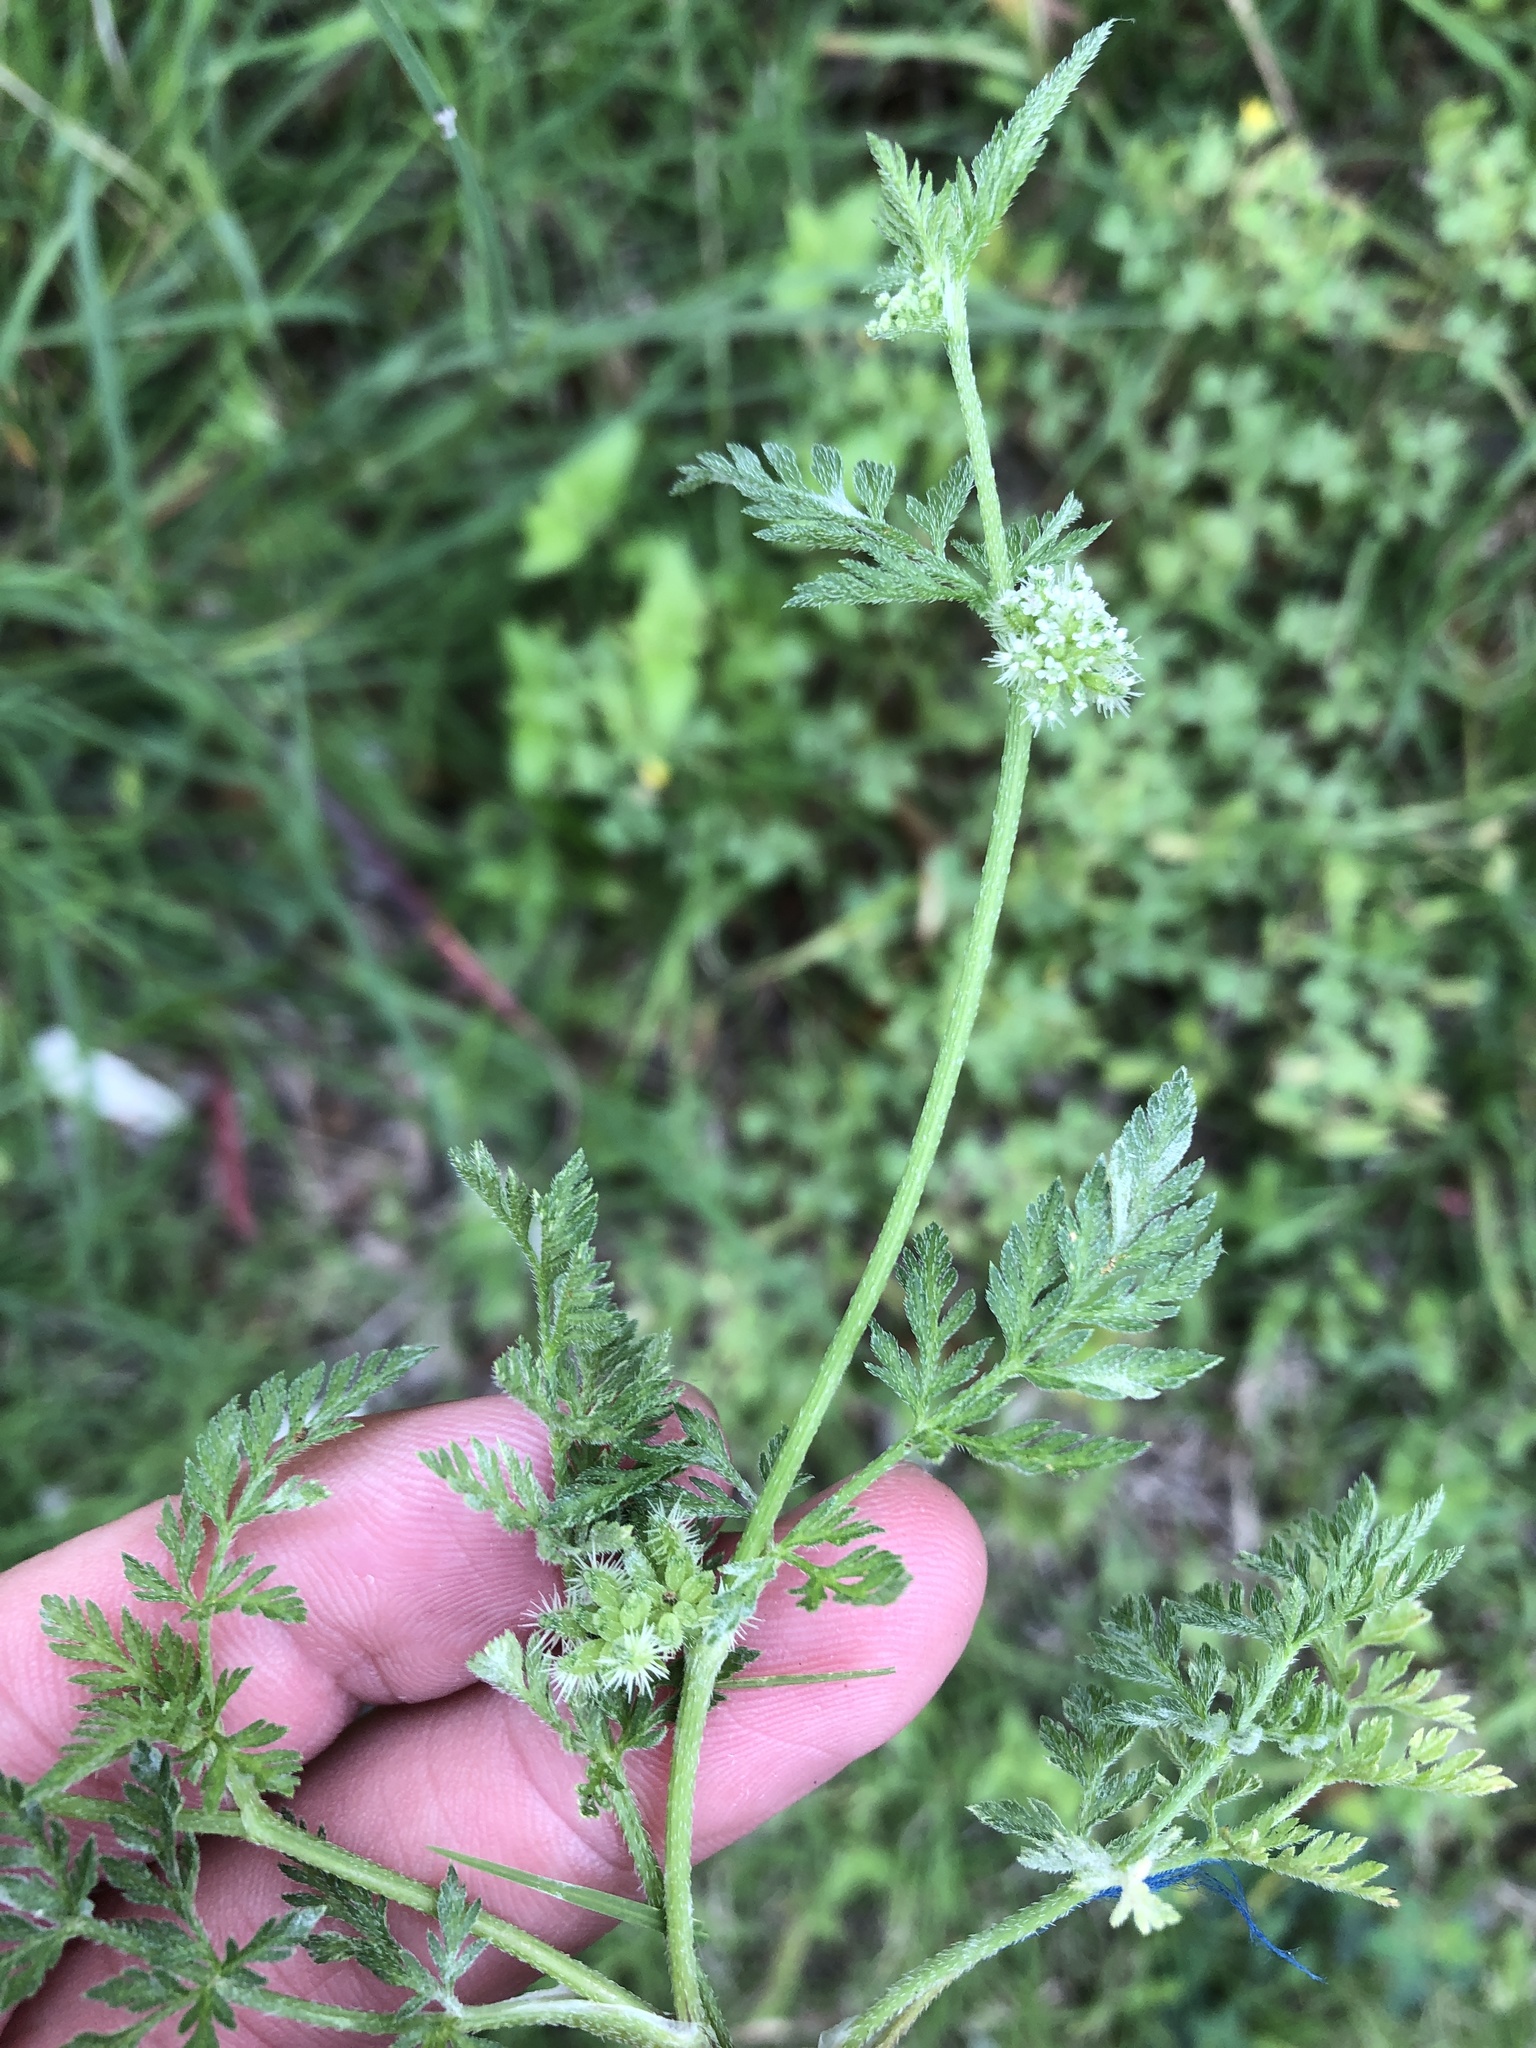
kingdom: Plantae
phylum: Tracheophyta
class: Magnoliopsida
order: Apiales
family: Apiaceae
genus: Torilis
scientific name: Torilis nodosa
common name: Knotted hedge-parsley
